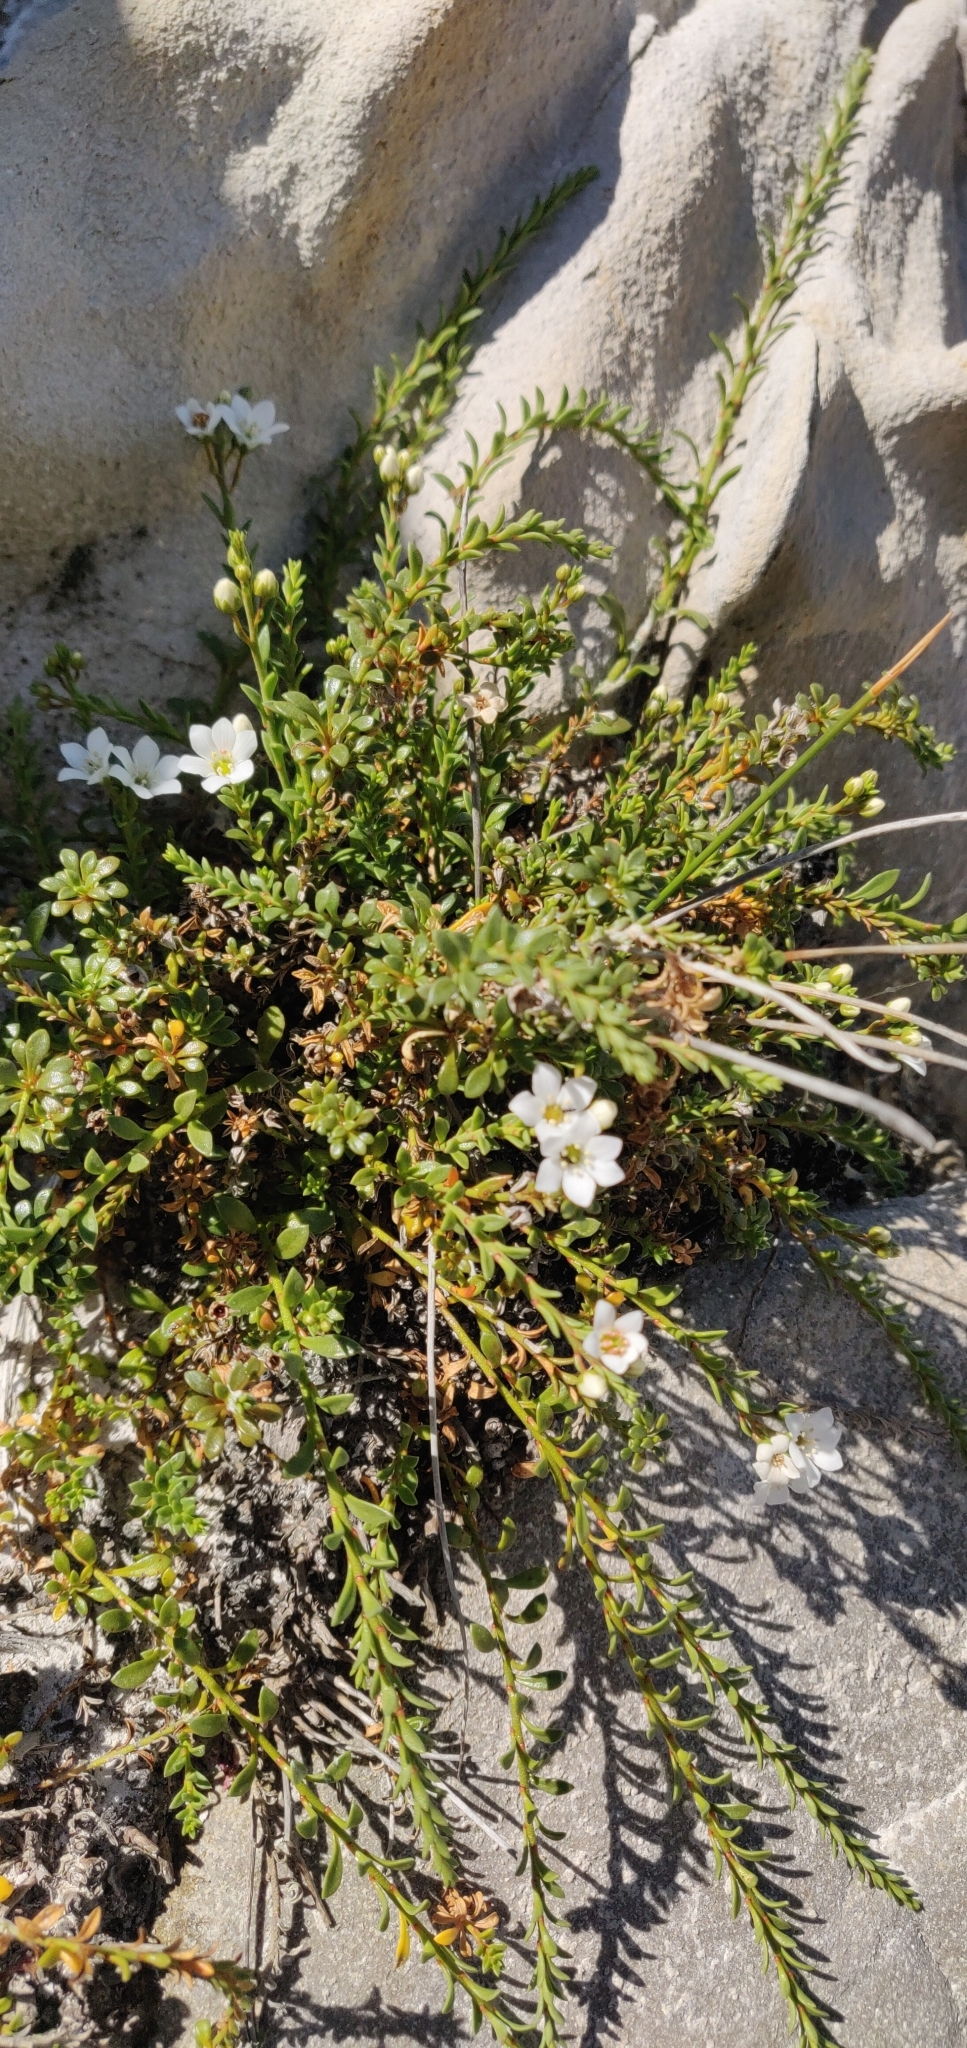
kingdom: Plantae
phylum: Tracheophyta
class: Magnoliopsida
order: Ericales
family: Primulaceae
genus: Samolus
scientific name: Samolus repens
